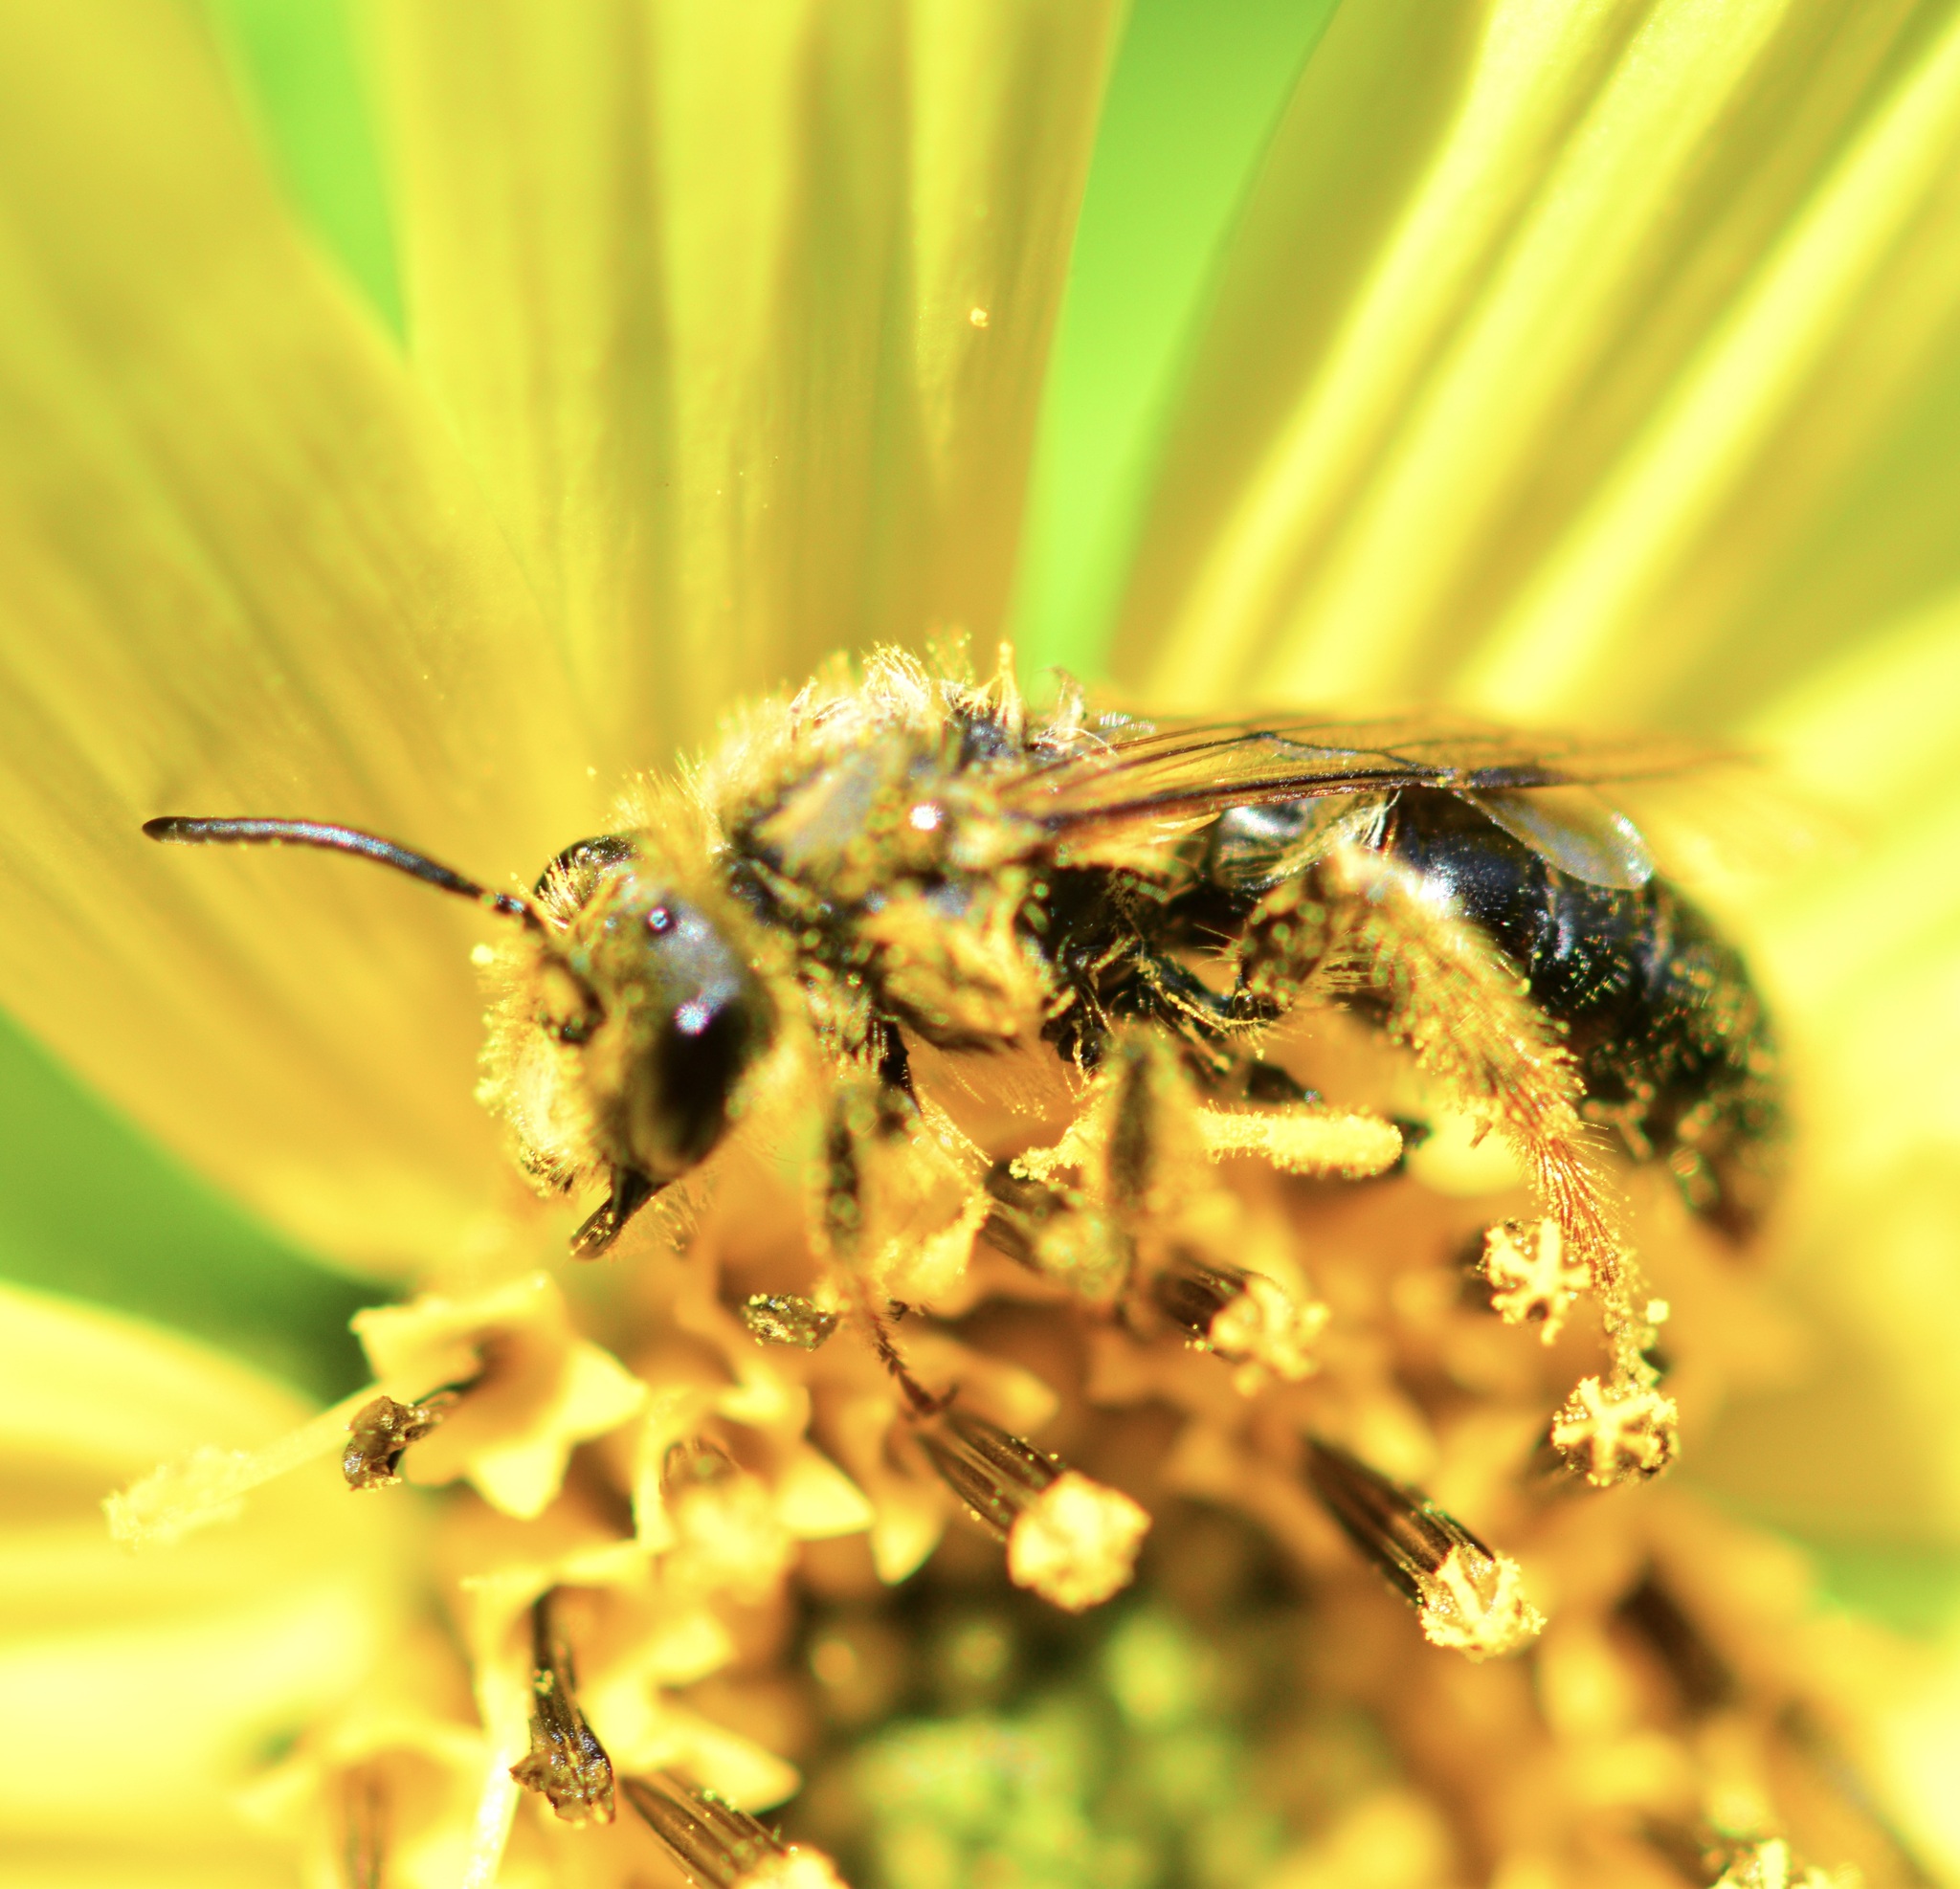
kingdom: Animalia
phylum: Arthropoda
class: Insecta
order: Hymenoptera
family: Andrenidae
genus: Andrena
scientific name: Andrena helianthi
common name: Sunflower mining bee
